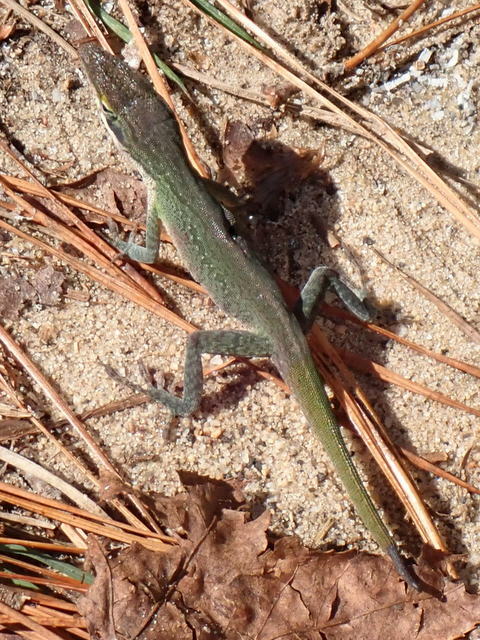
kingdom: Animalia
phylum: Chordata
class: Squamata
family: Dactyloidae
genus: Anolis
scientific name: Anolis carolinensis
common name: Green anole
